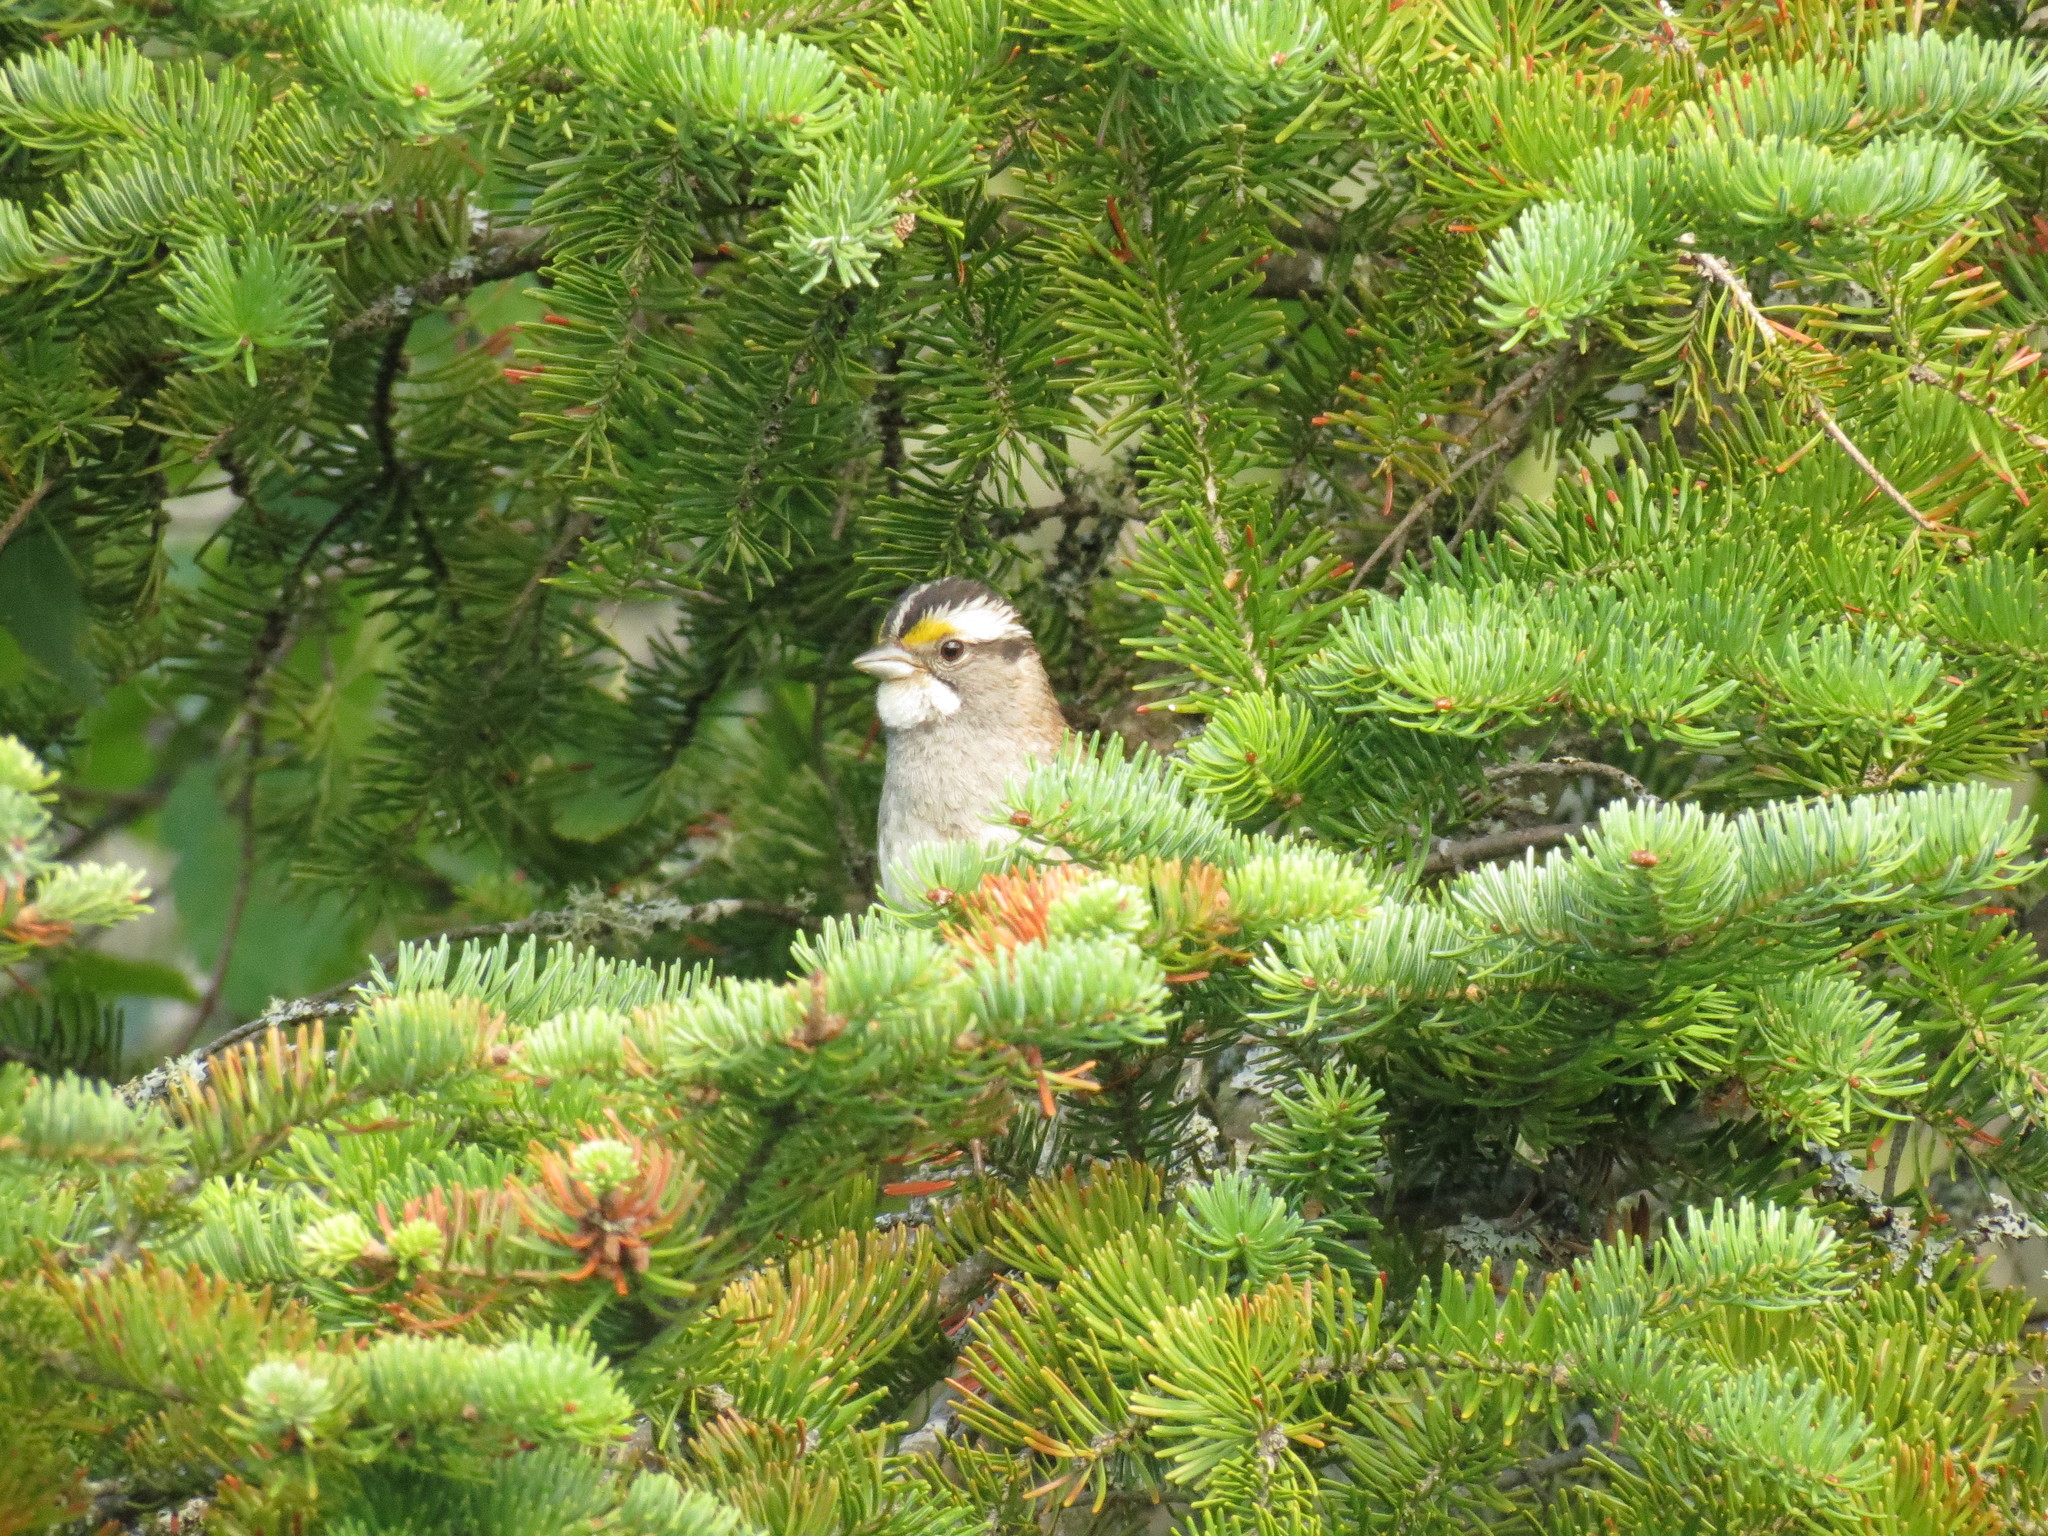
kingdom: Animalia
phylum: Chordata
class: Aves
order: Passeriformes
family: Passerellidae
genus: Zonotrichia
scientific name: Zonotrichia albicollis
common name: White-throated sparrow
